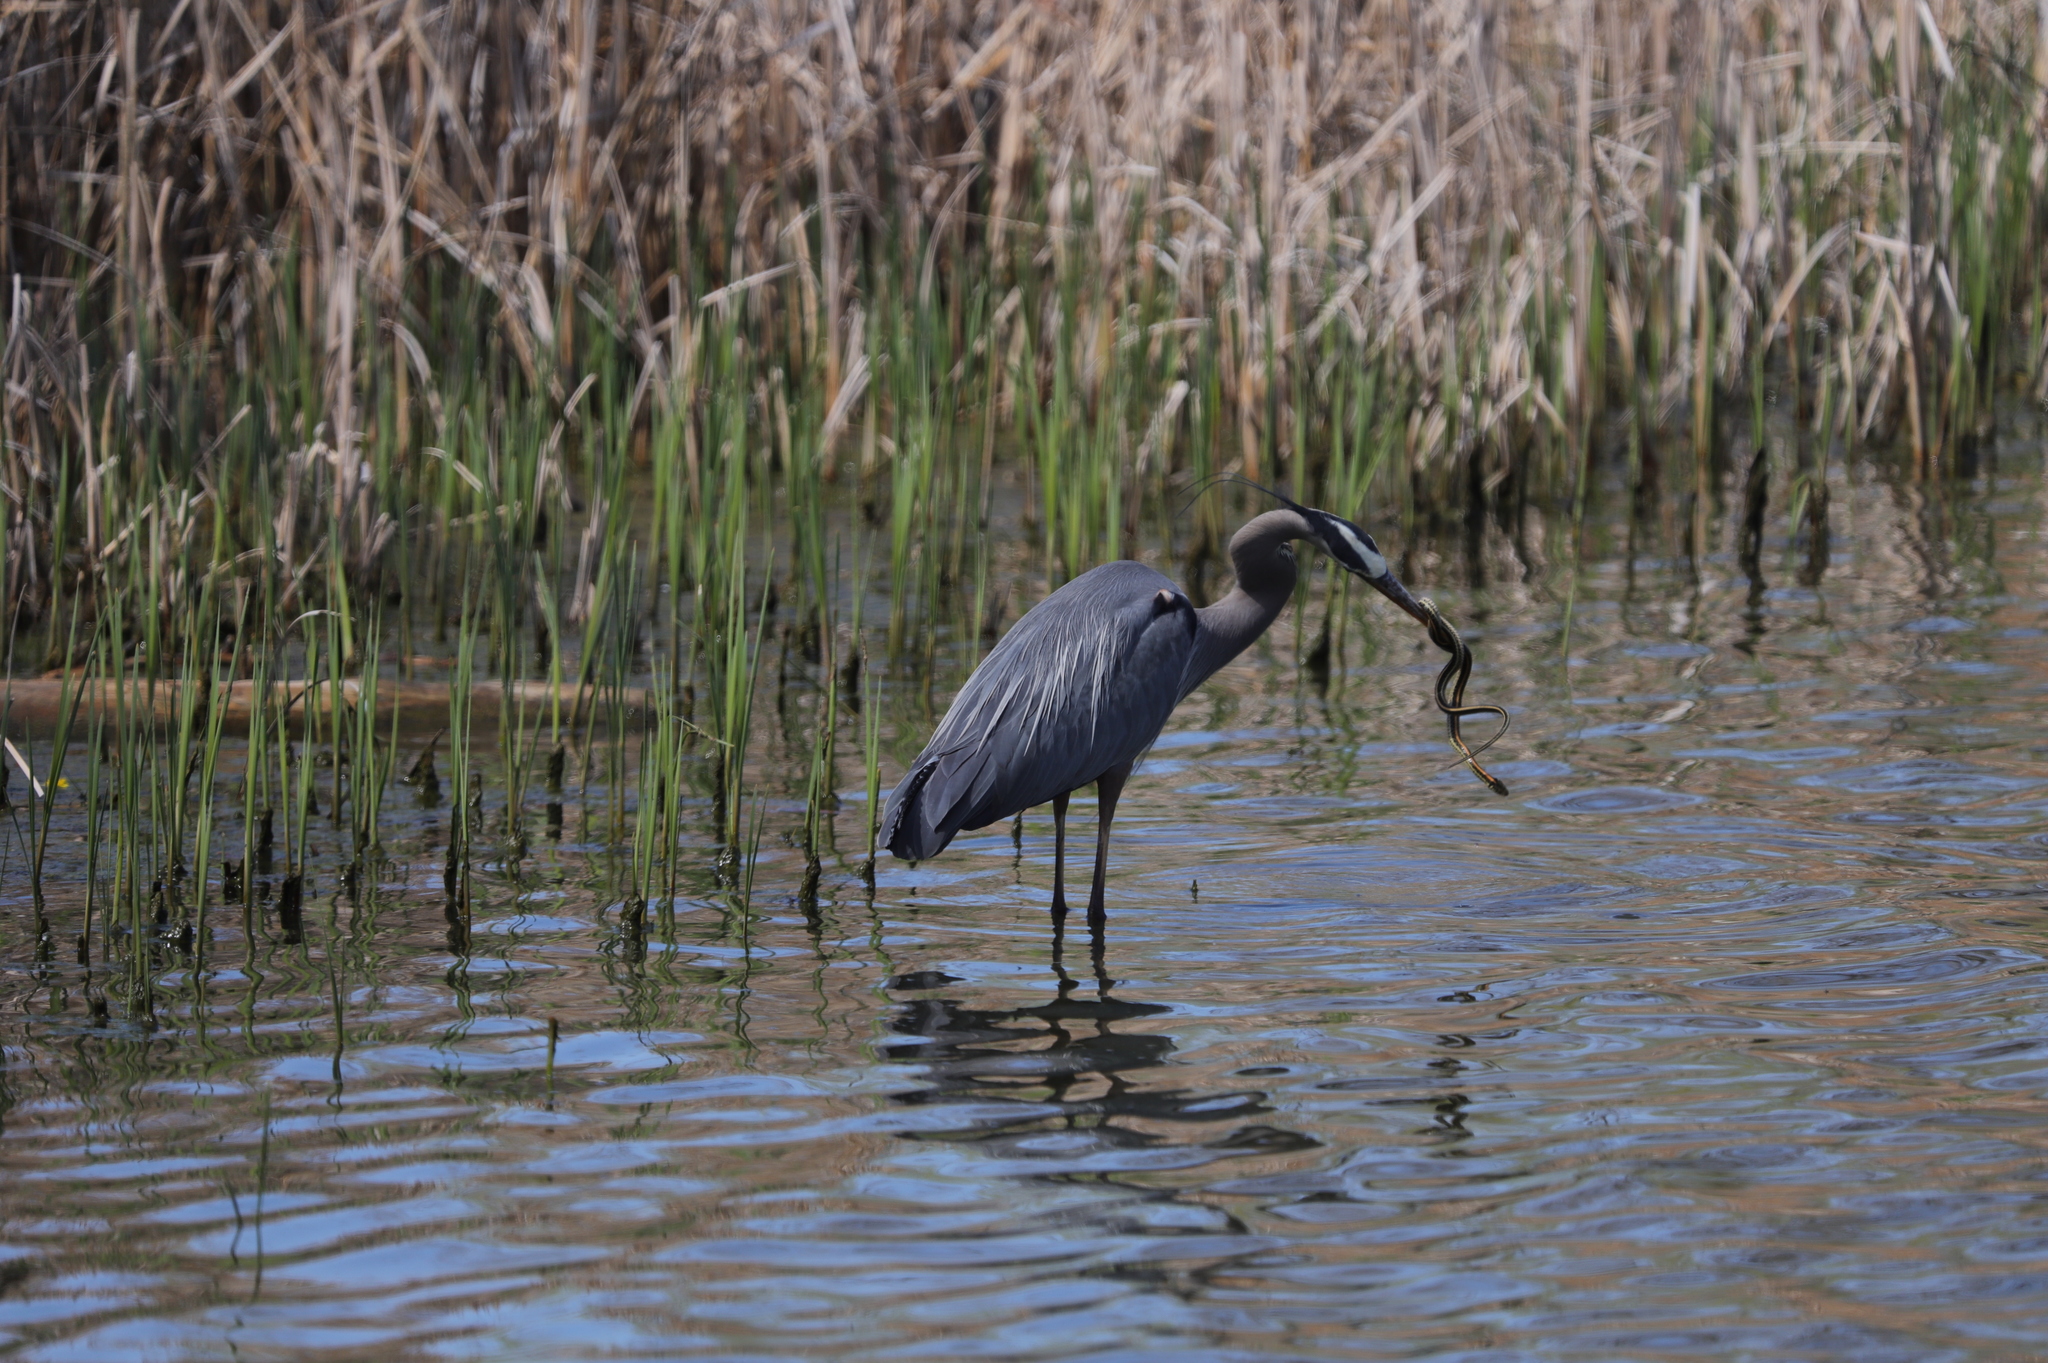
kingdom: Animalia
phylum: Chordata
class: Squamata
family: Colubridae
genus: Thamnophis
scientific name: Thamnophis radix
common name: Plains garter snake
